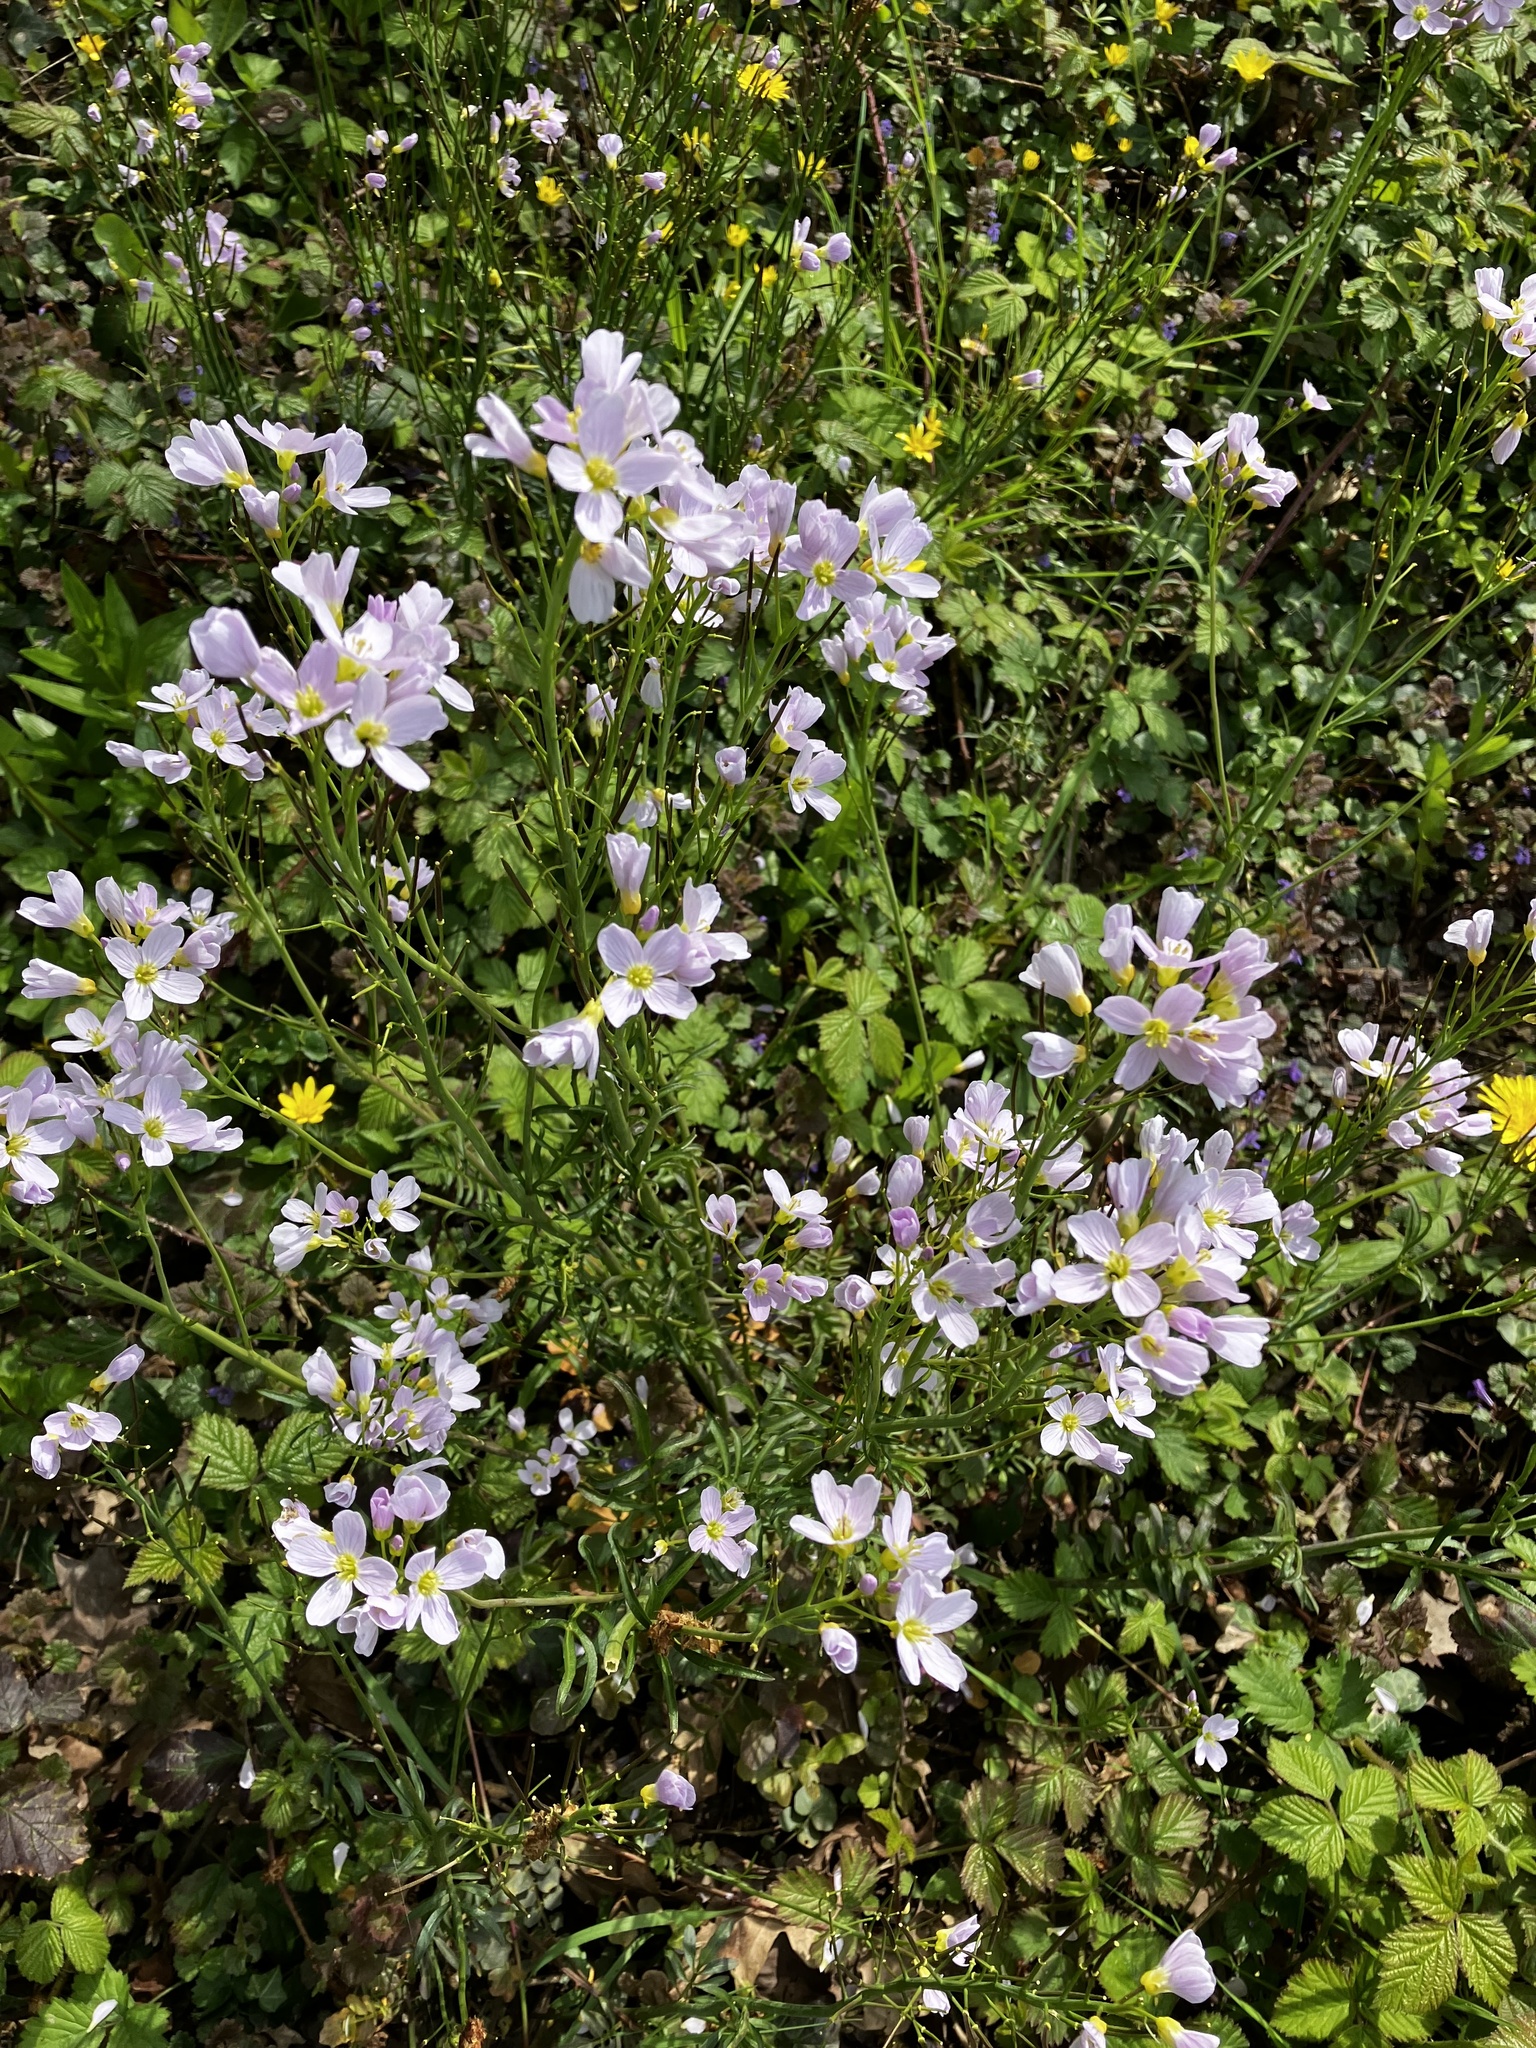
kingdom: Plantae
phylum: Tracheophyta
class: Magnoliopsida
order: Brassicales
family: Brassicaceae
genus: Cardamine
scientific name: Cardamine pratensis
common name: Cuckoo flower
